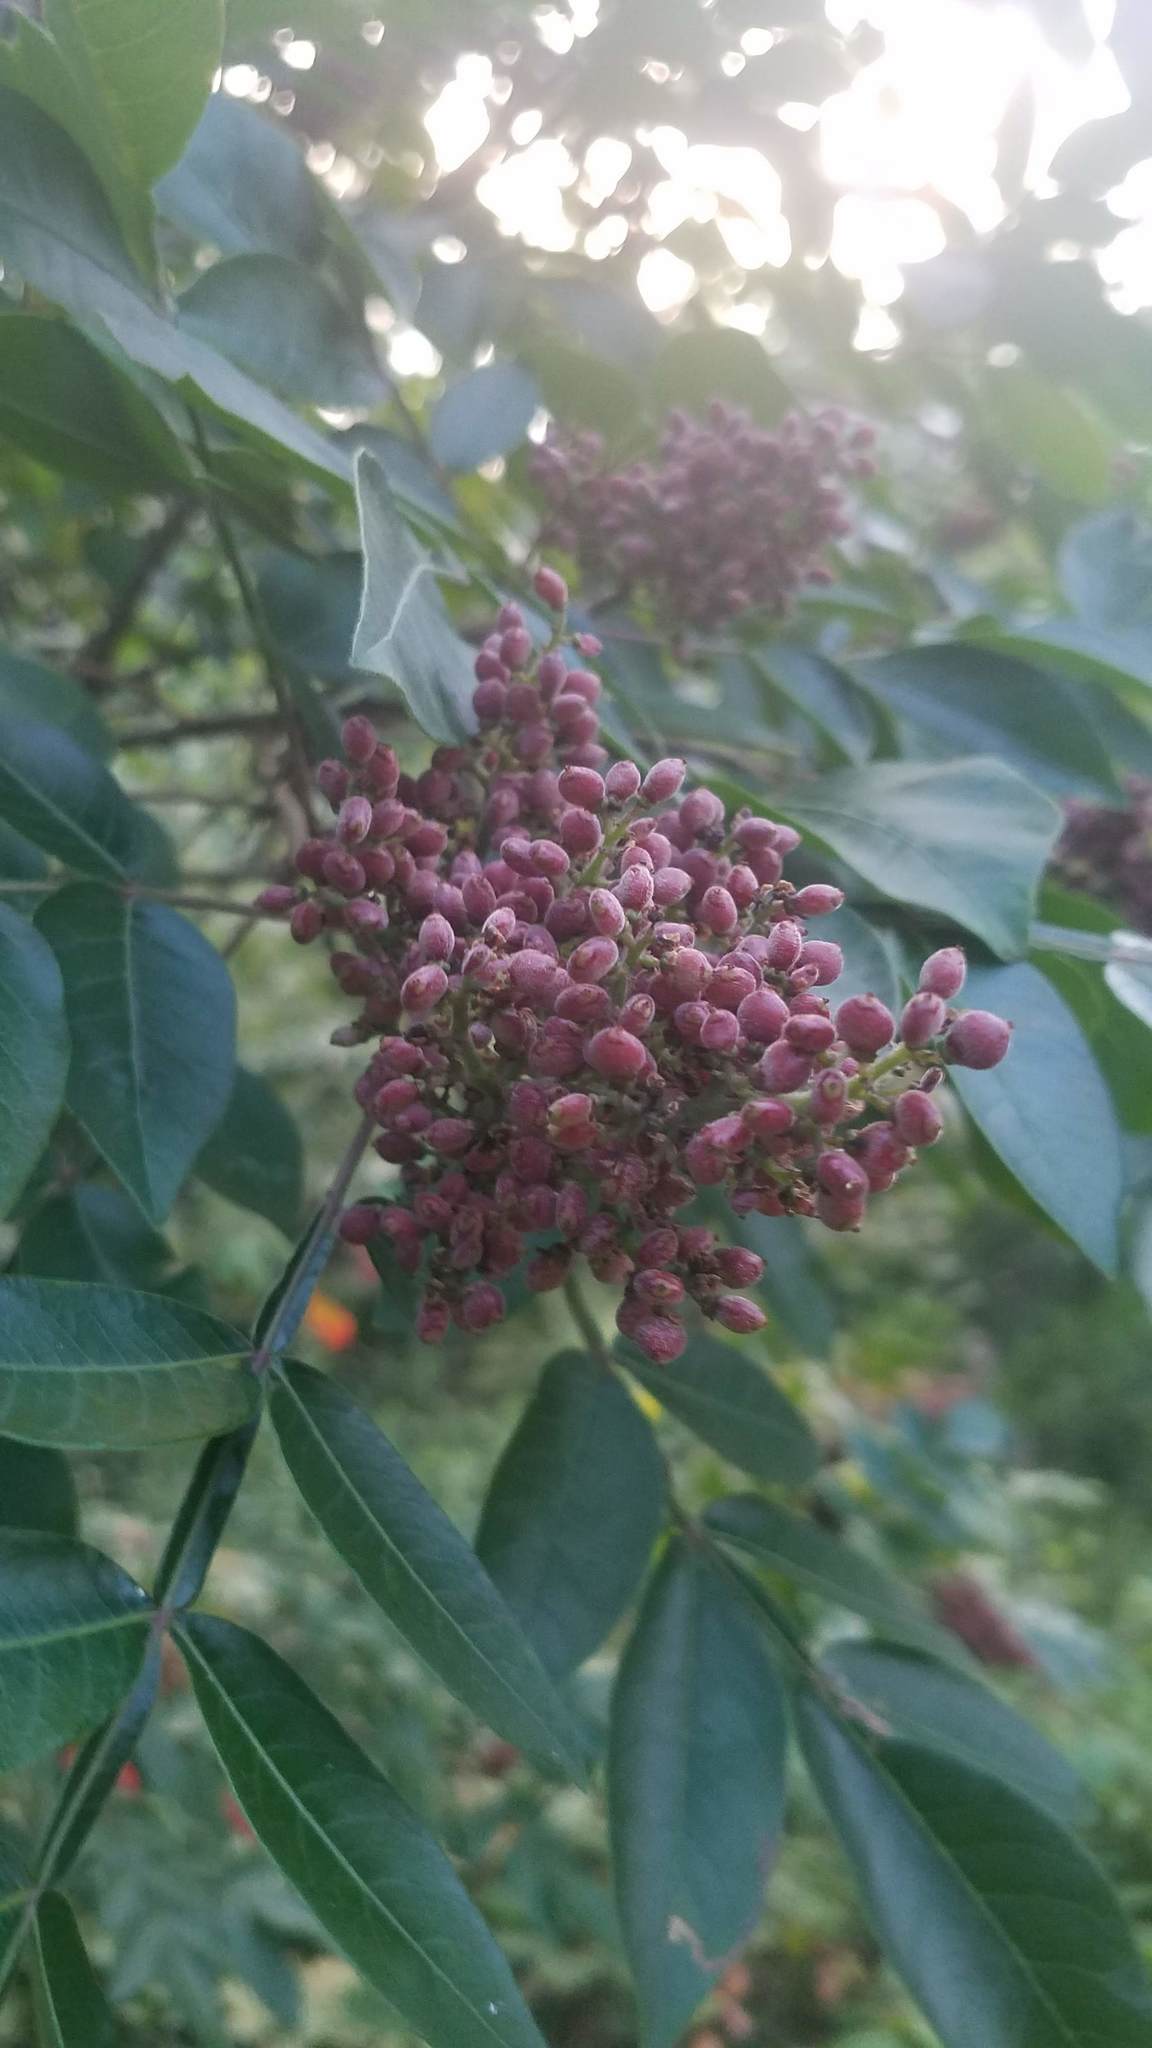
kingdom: Plantae
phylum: Tracheophyta
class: Magnoliopsida
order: Sapindales
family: Anacardiaceae
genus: Rhus
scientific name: Rhus copallina
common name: Shining sumac
